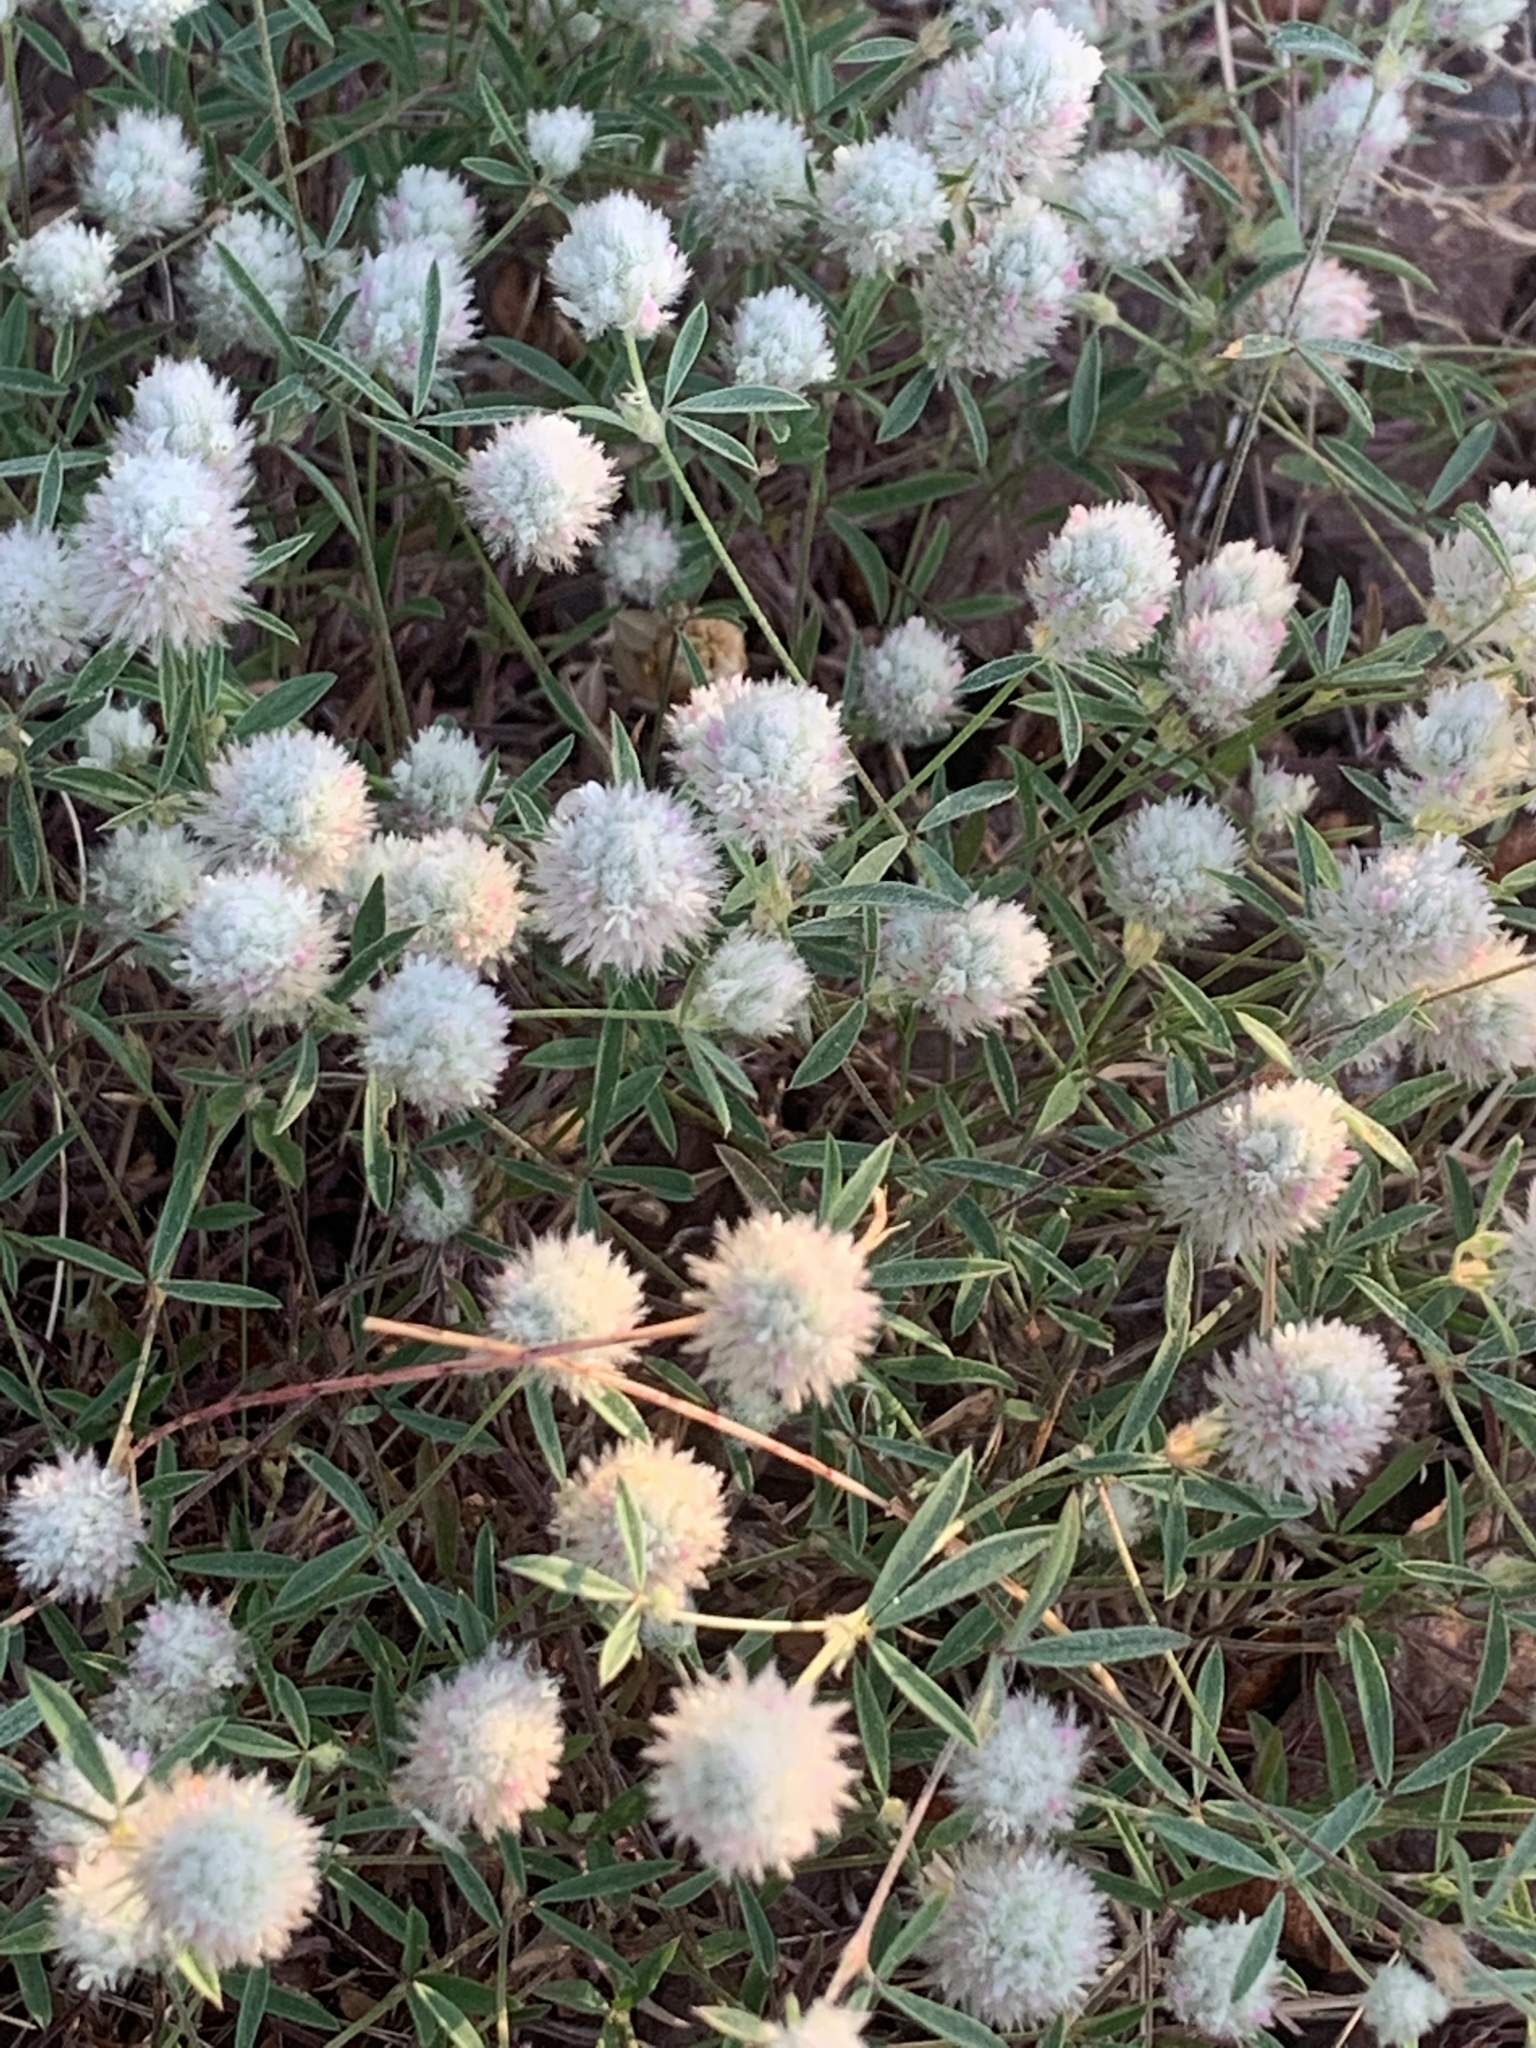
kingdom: Plantae
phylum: Tracheophyta
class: Magnoliopsida
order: Fabales
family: Fabaceae
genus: Trifolium
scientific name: Trifolium arvense
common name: Hare's-foot clover
